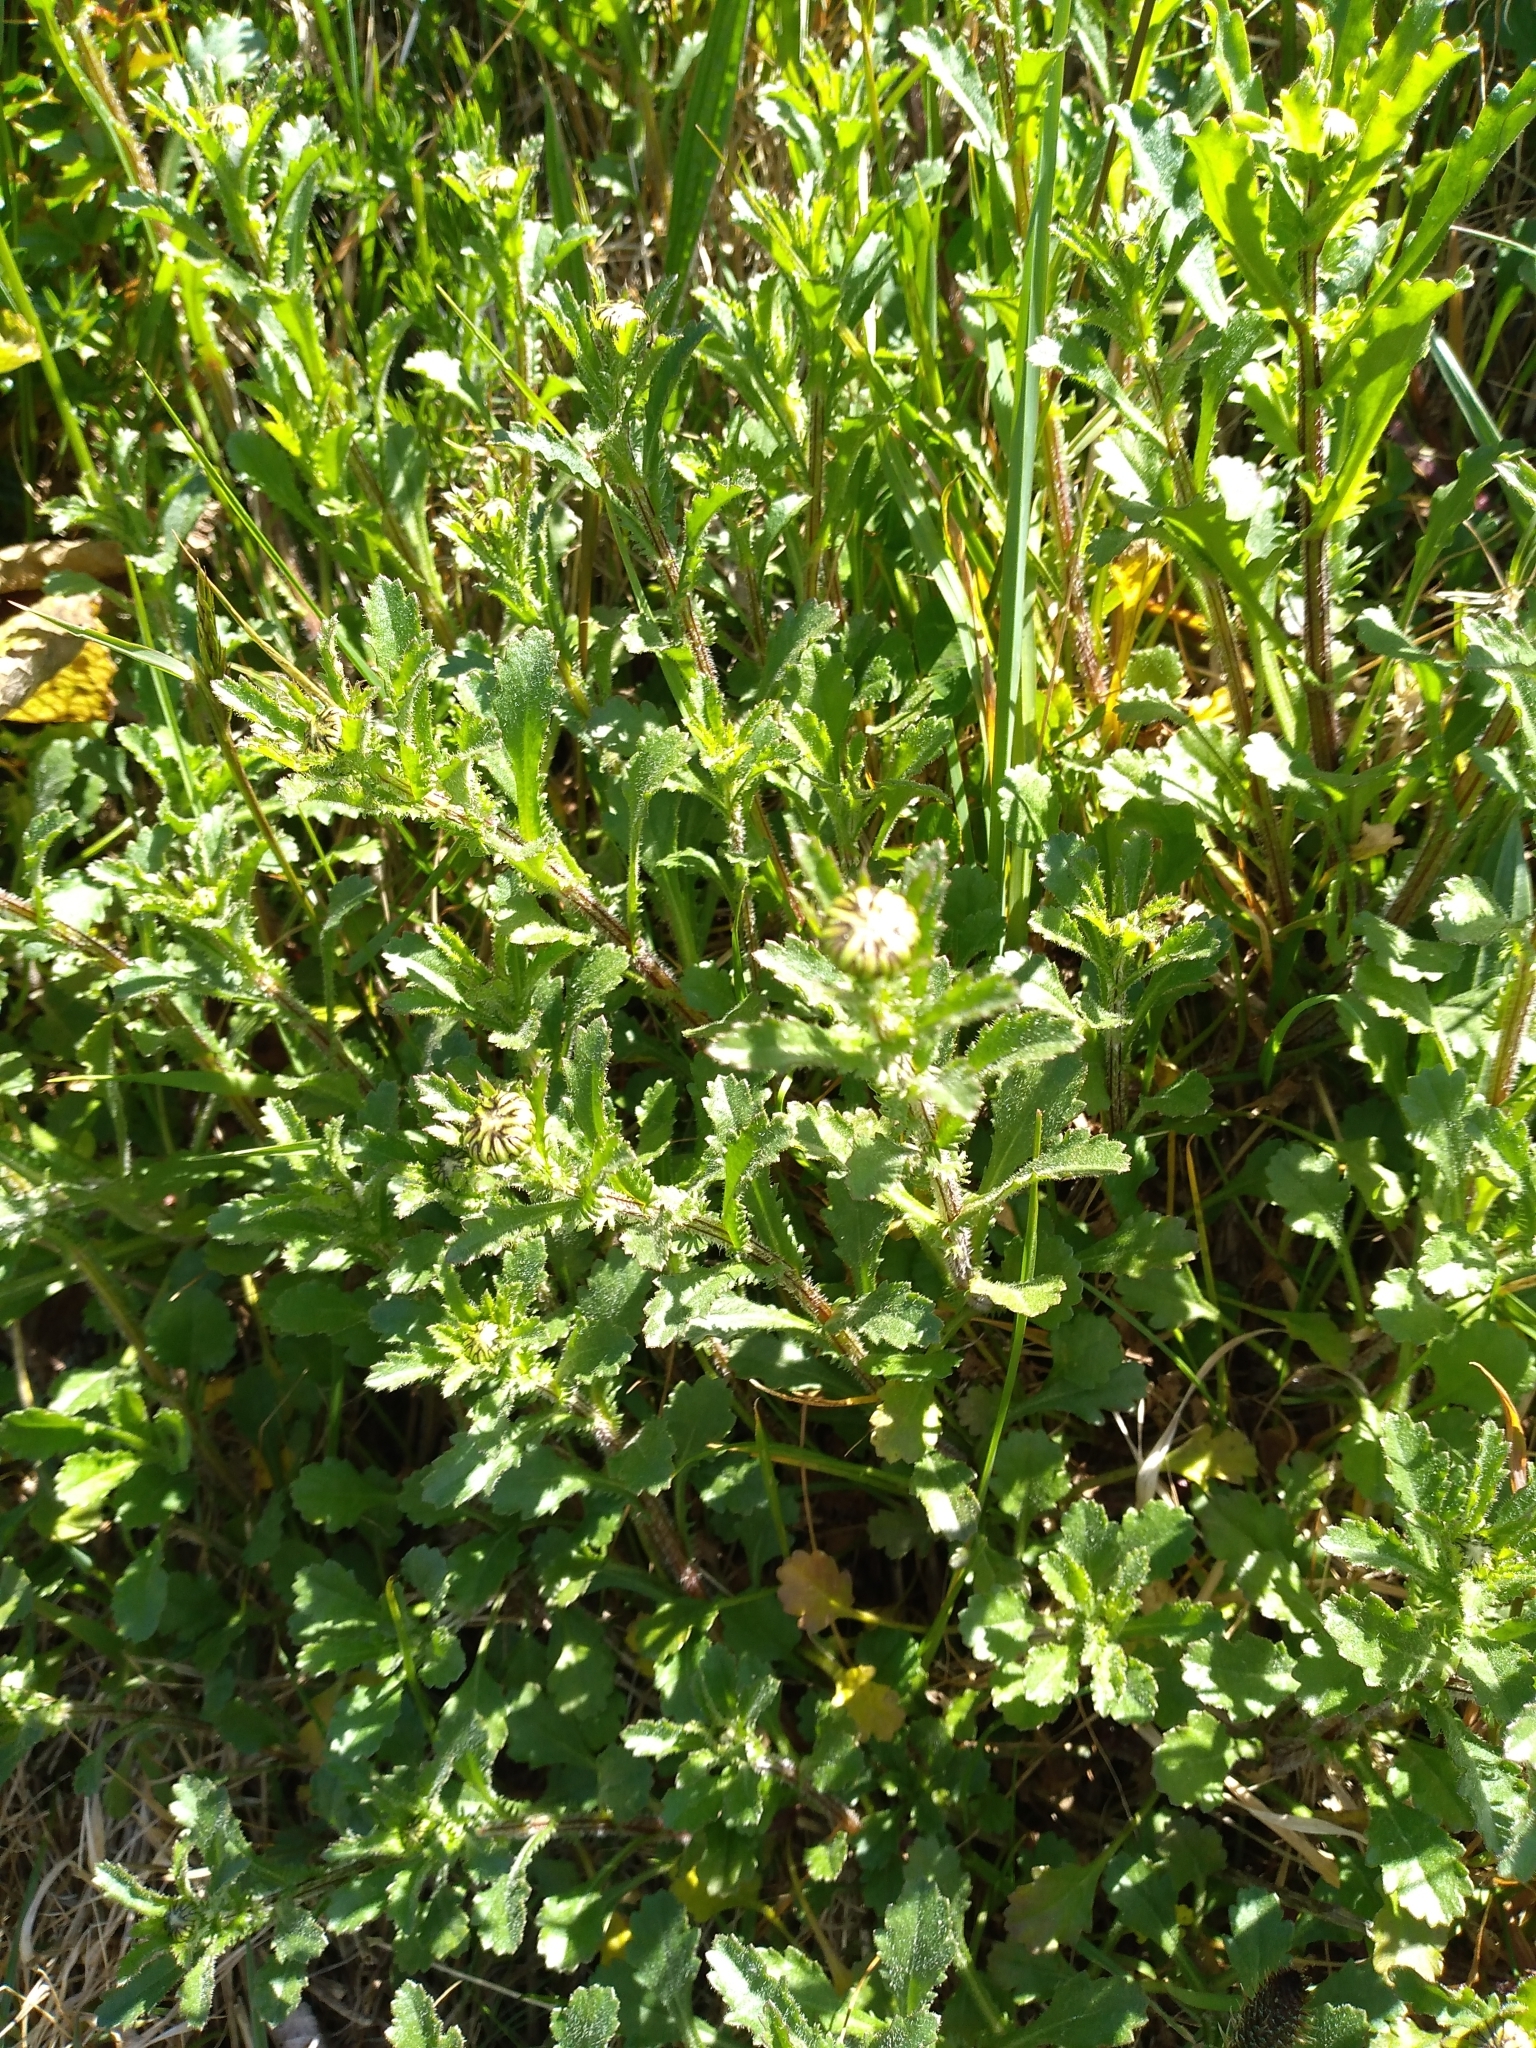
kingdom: Plantae
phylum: Tracheophyta
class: Magnoliopsida
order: Asterales
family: Asteraceae
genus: Leucanthemum
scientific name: Leucanthemum vulgare
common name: Oxeye daisy
